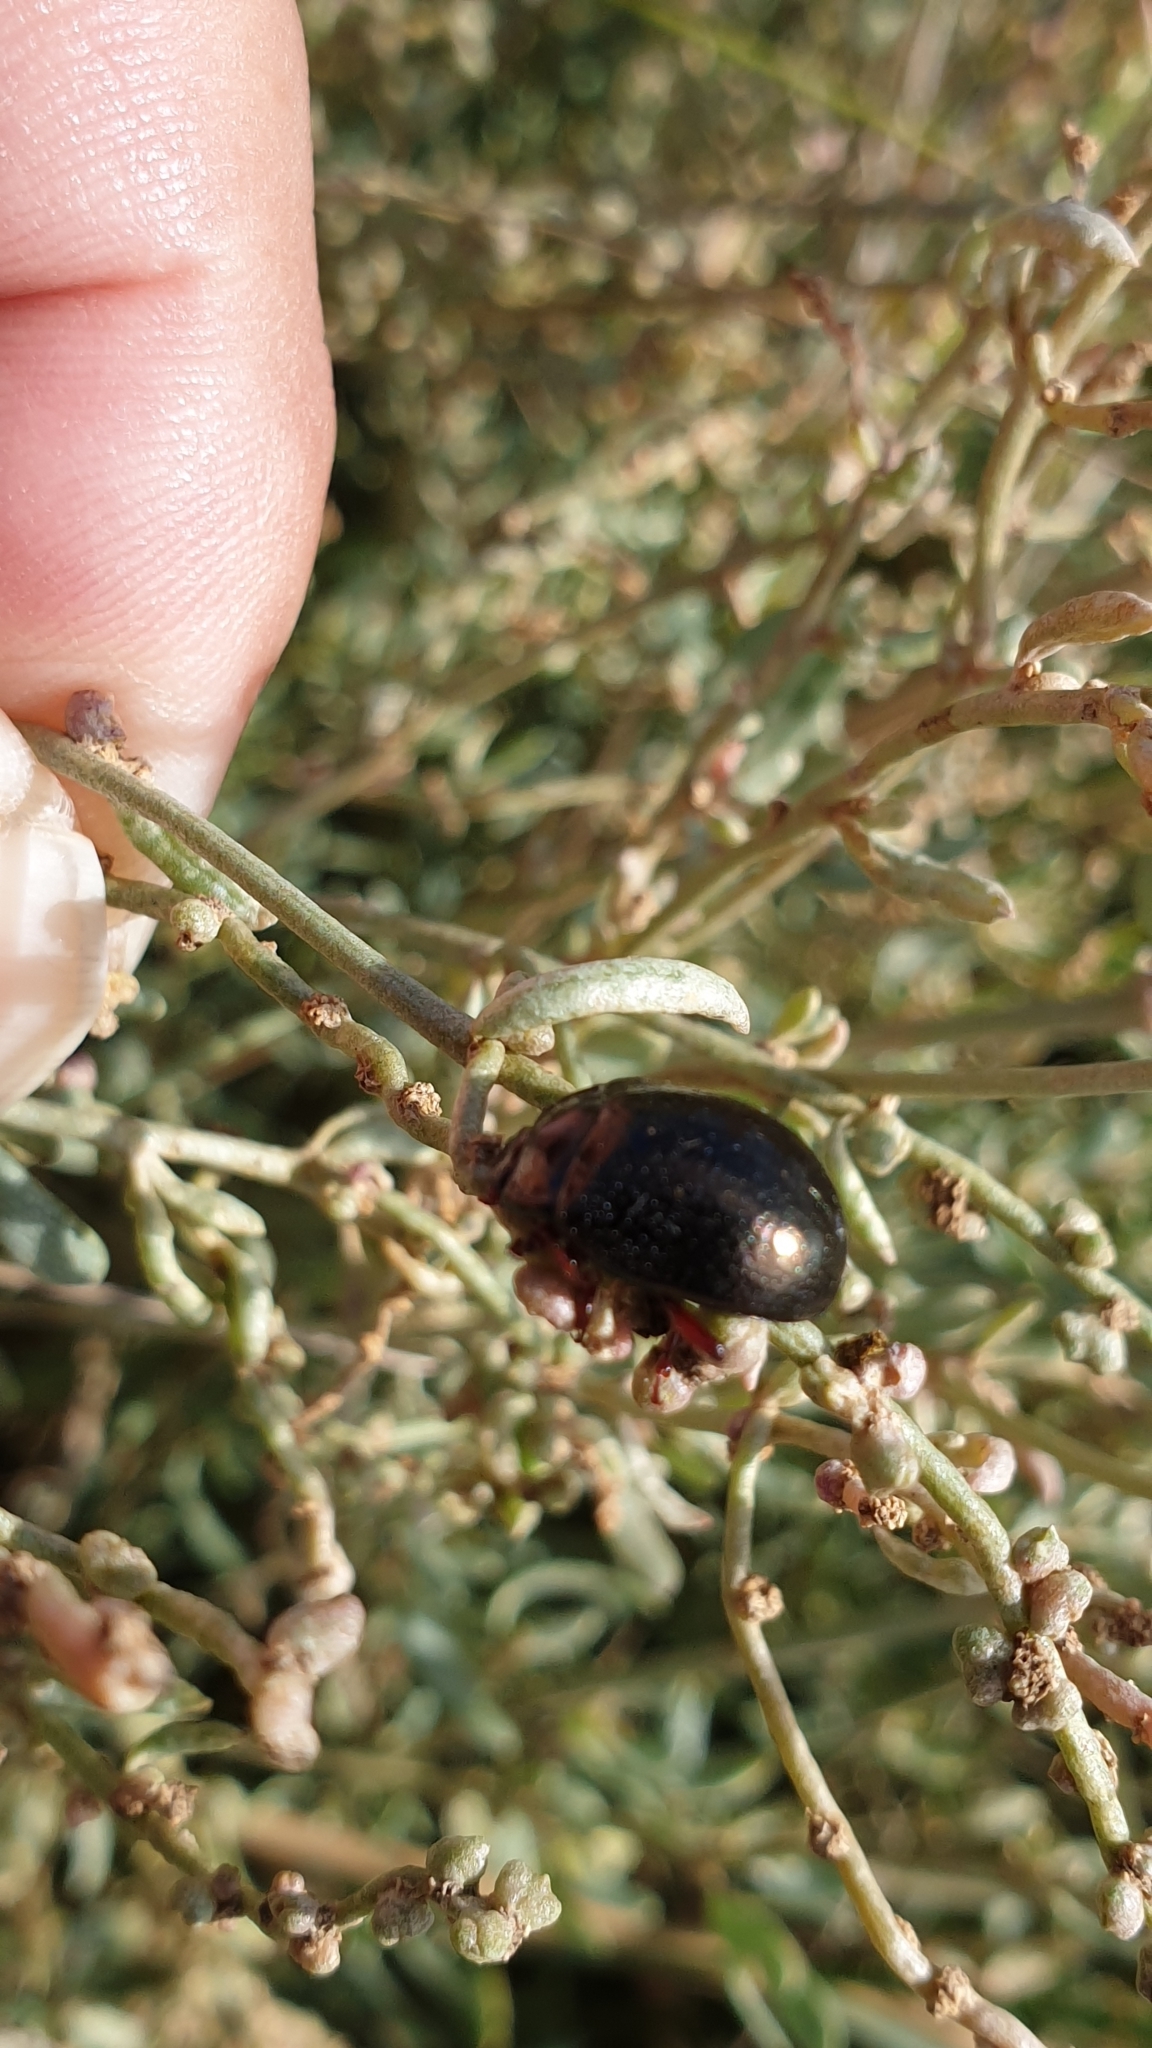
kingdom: Animalia
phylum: Arthropoda
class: Insecta
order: Coleoptera
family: Chrysomelidae
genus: Chrysolina
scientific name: Chrysolina bankii
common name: Leaf beetle
